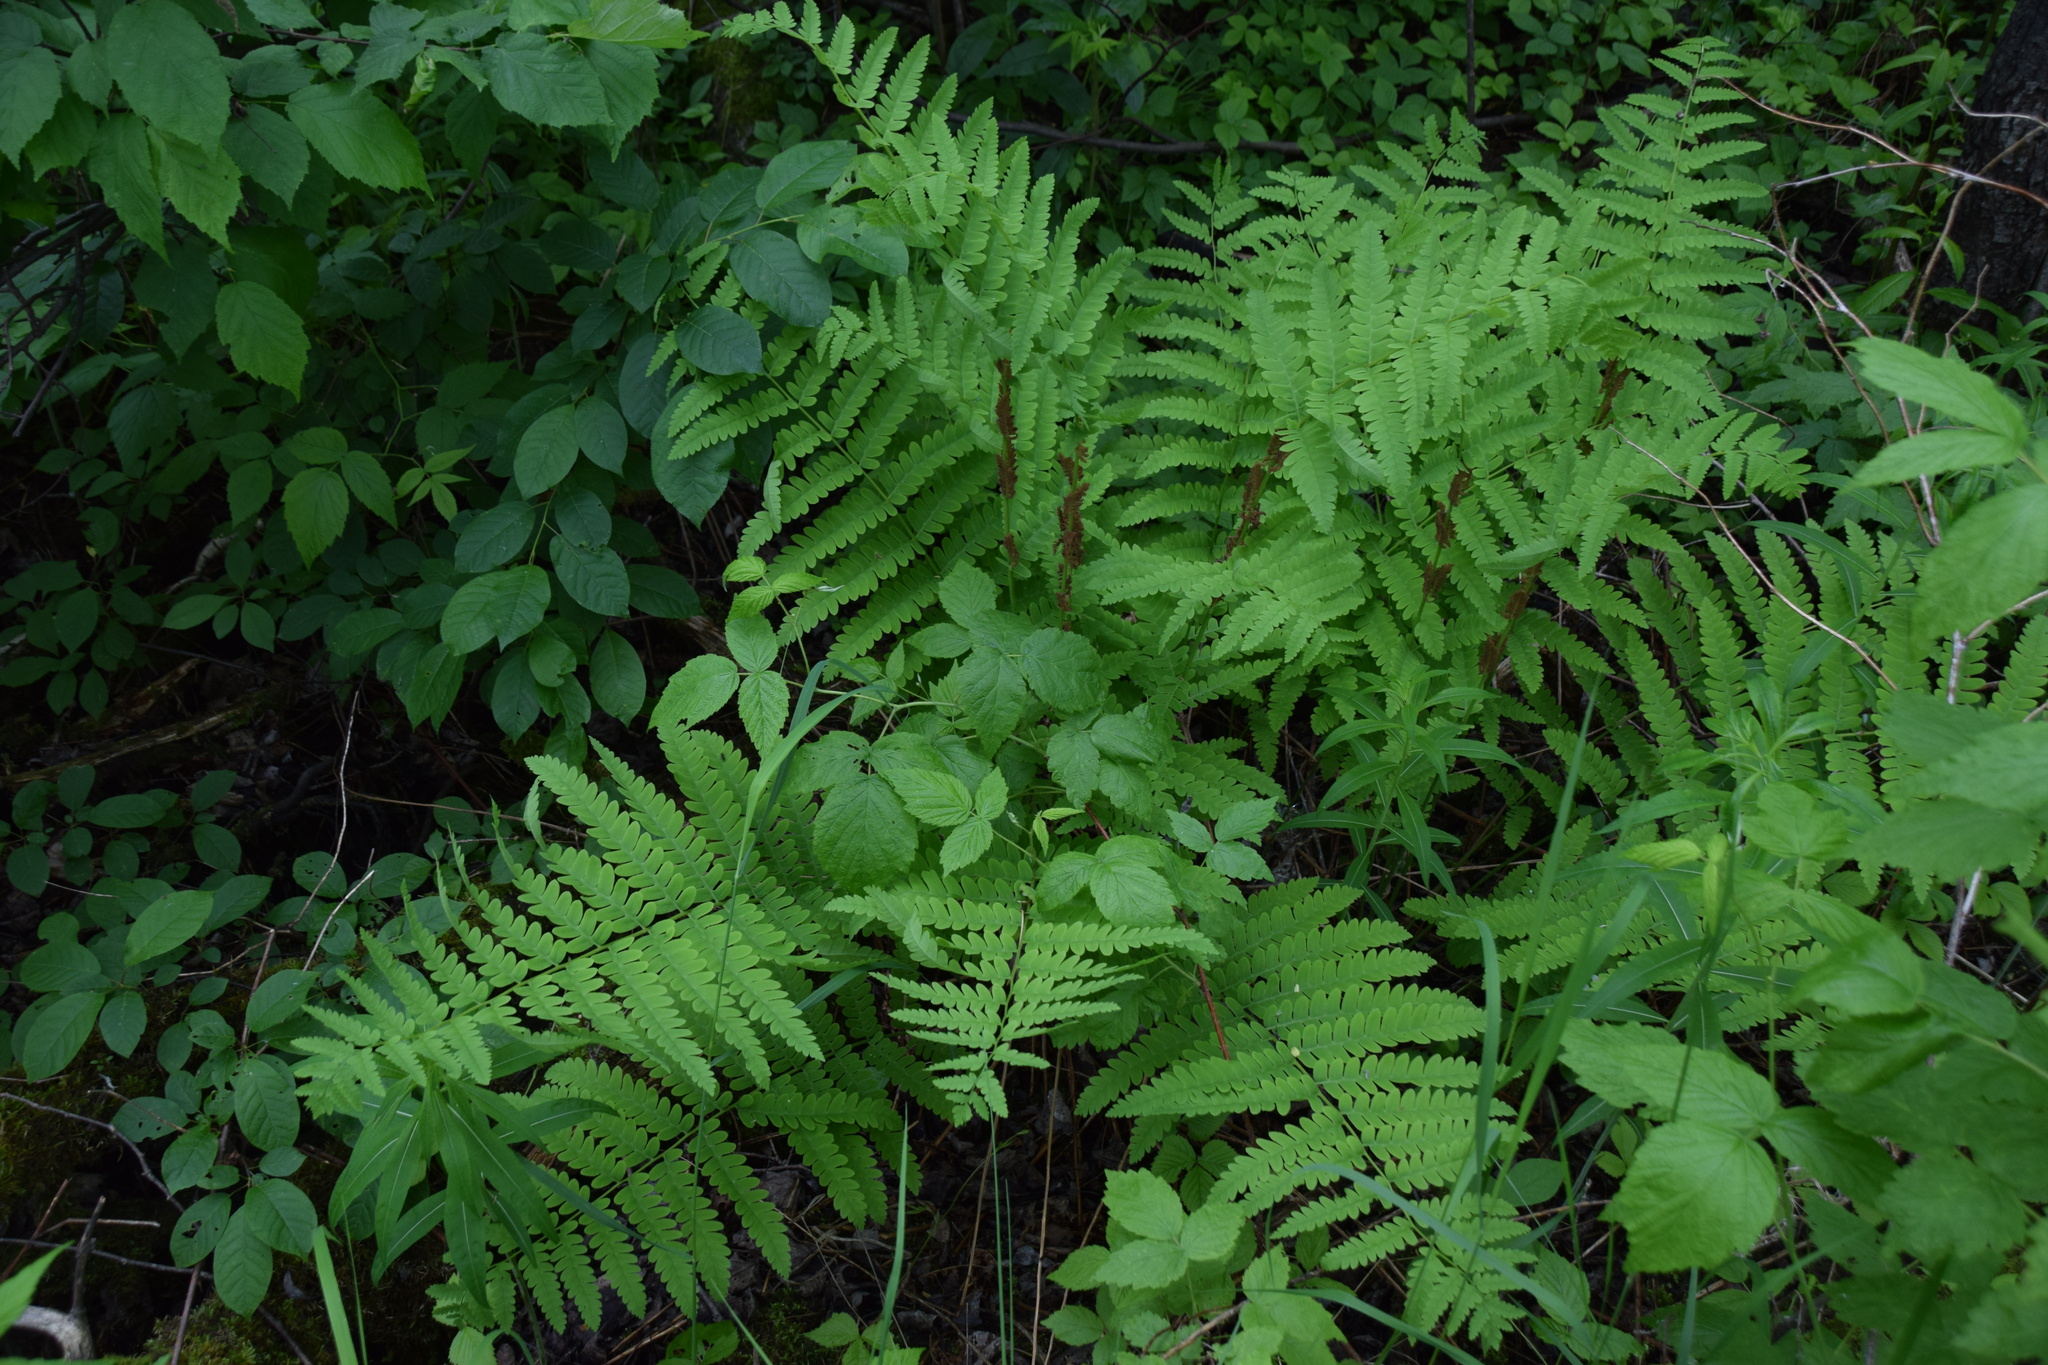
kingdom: Plantae
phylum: Tracheophyta
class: Polypodiopsida
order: Osmundales
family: Osmundaceae
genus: Claytosmunda
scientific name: Claytosmunda claytoniana
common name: Clayton's fern
